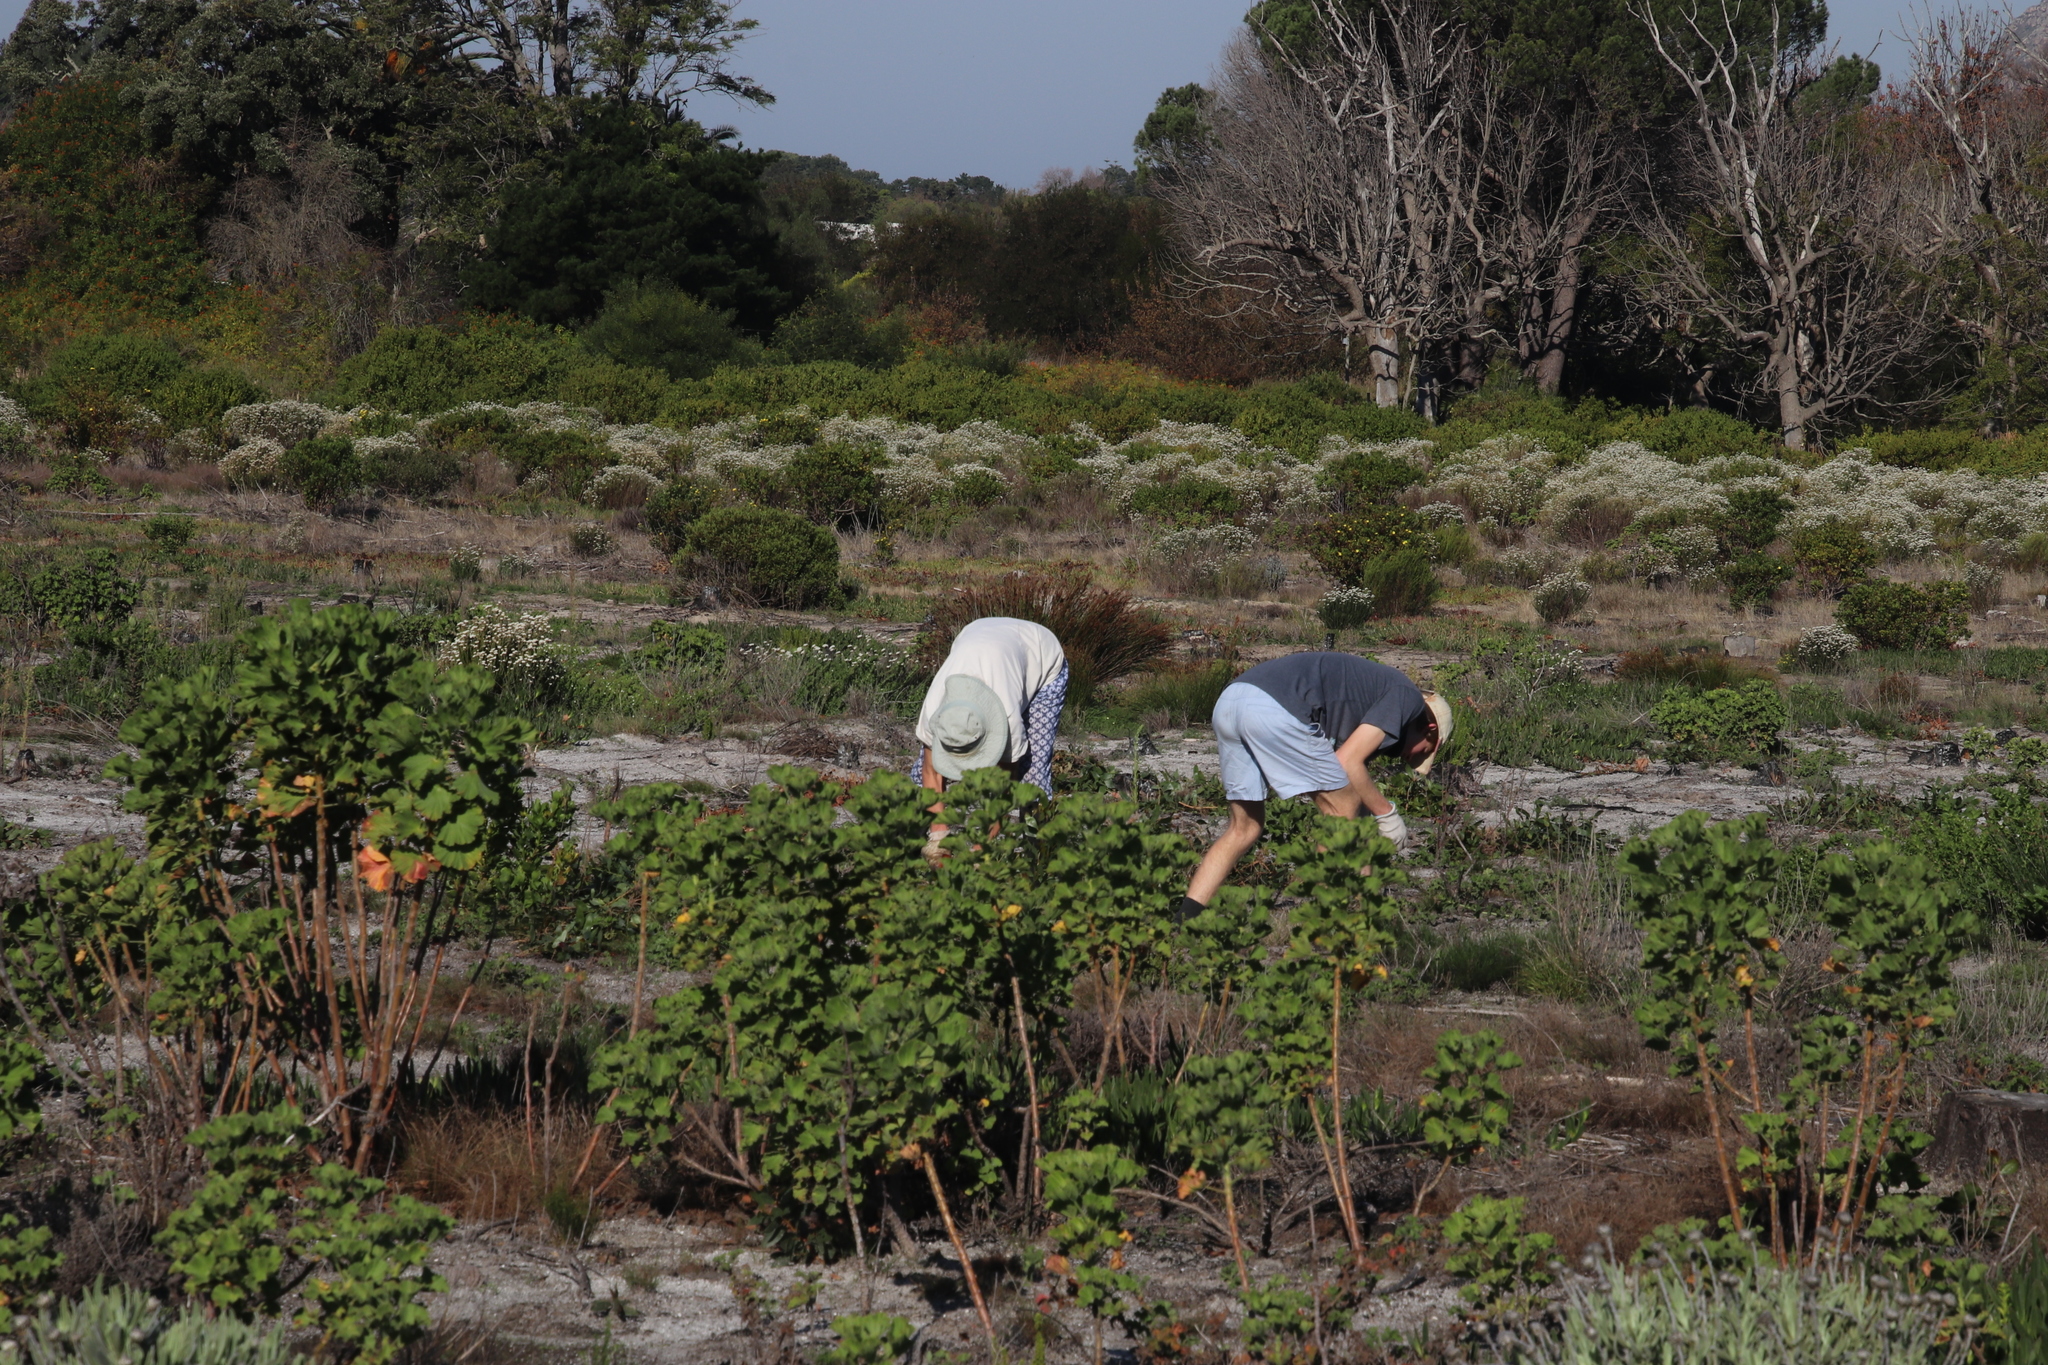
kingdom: Plantae
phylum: Tracheophyta
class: Magnoliopsida
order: Geraniales
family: Geraniaceae
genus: Pelargonium
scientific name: Pelargonium cucullatum
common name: Tree pelargonium
